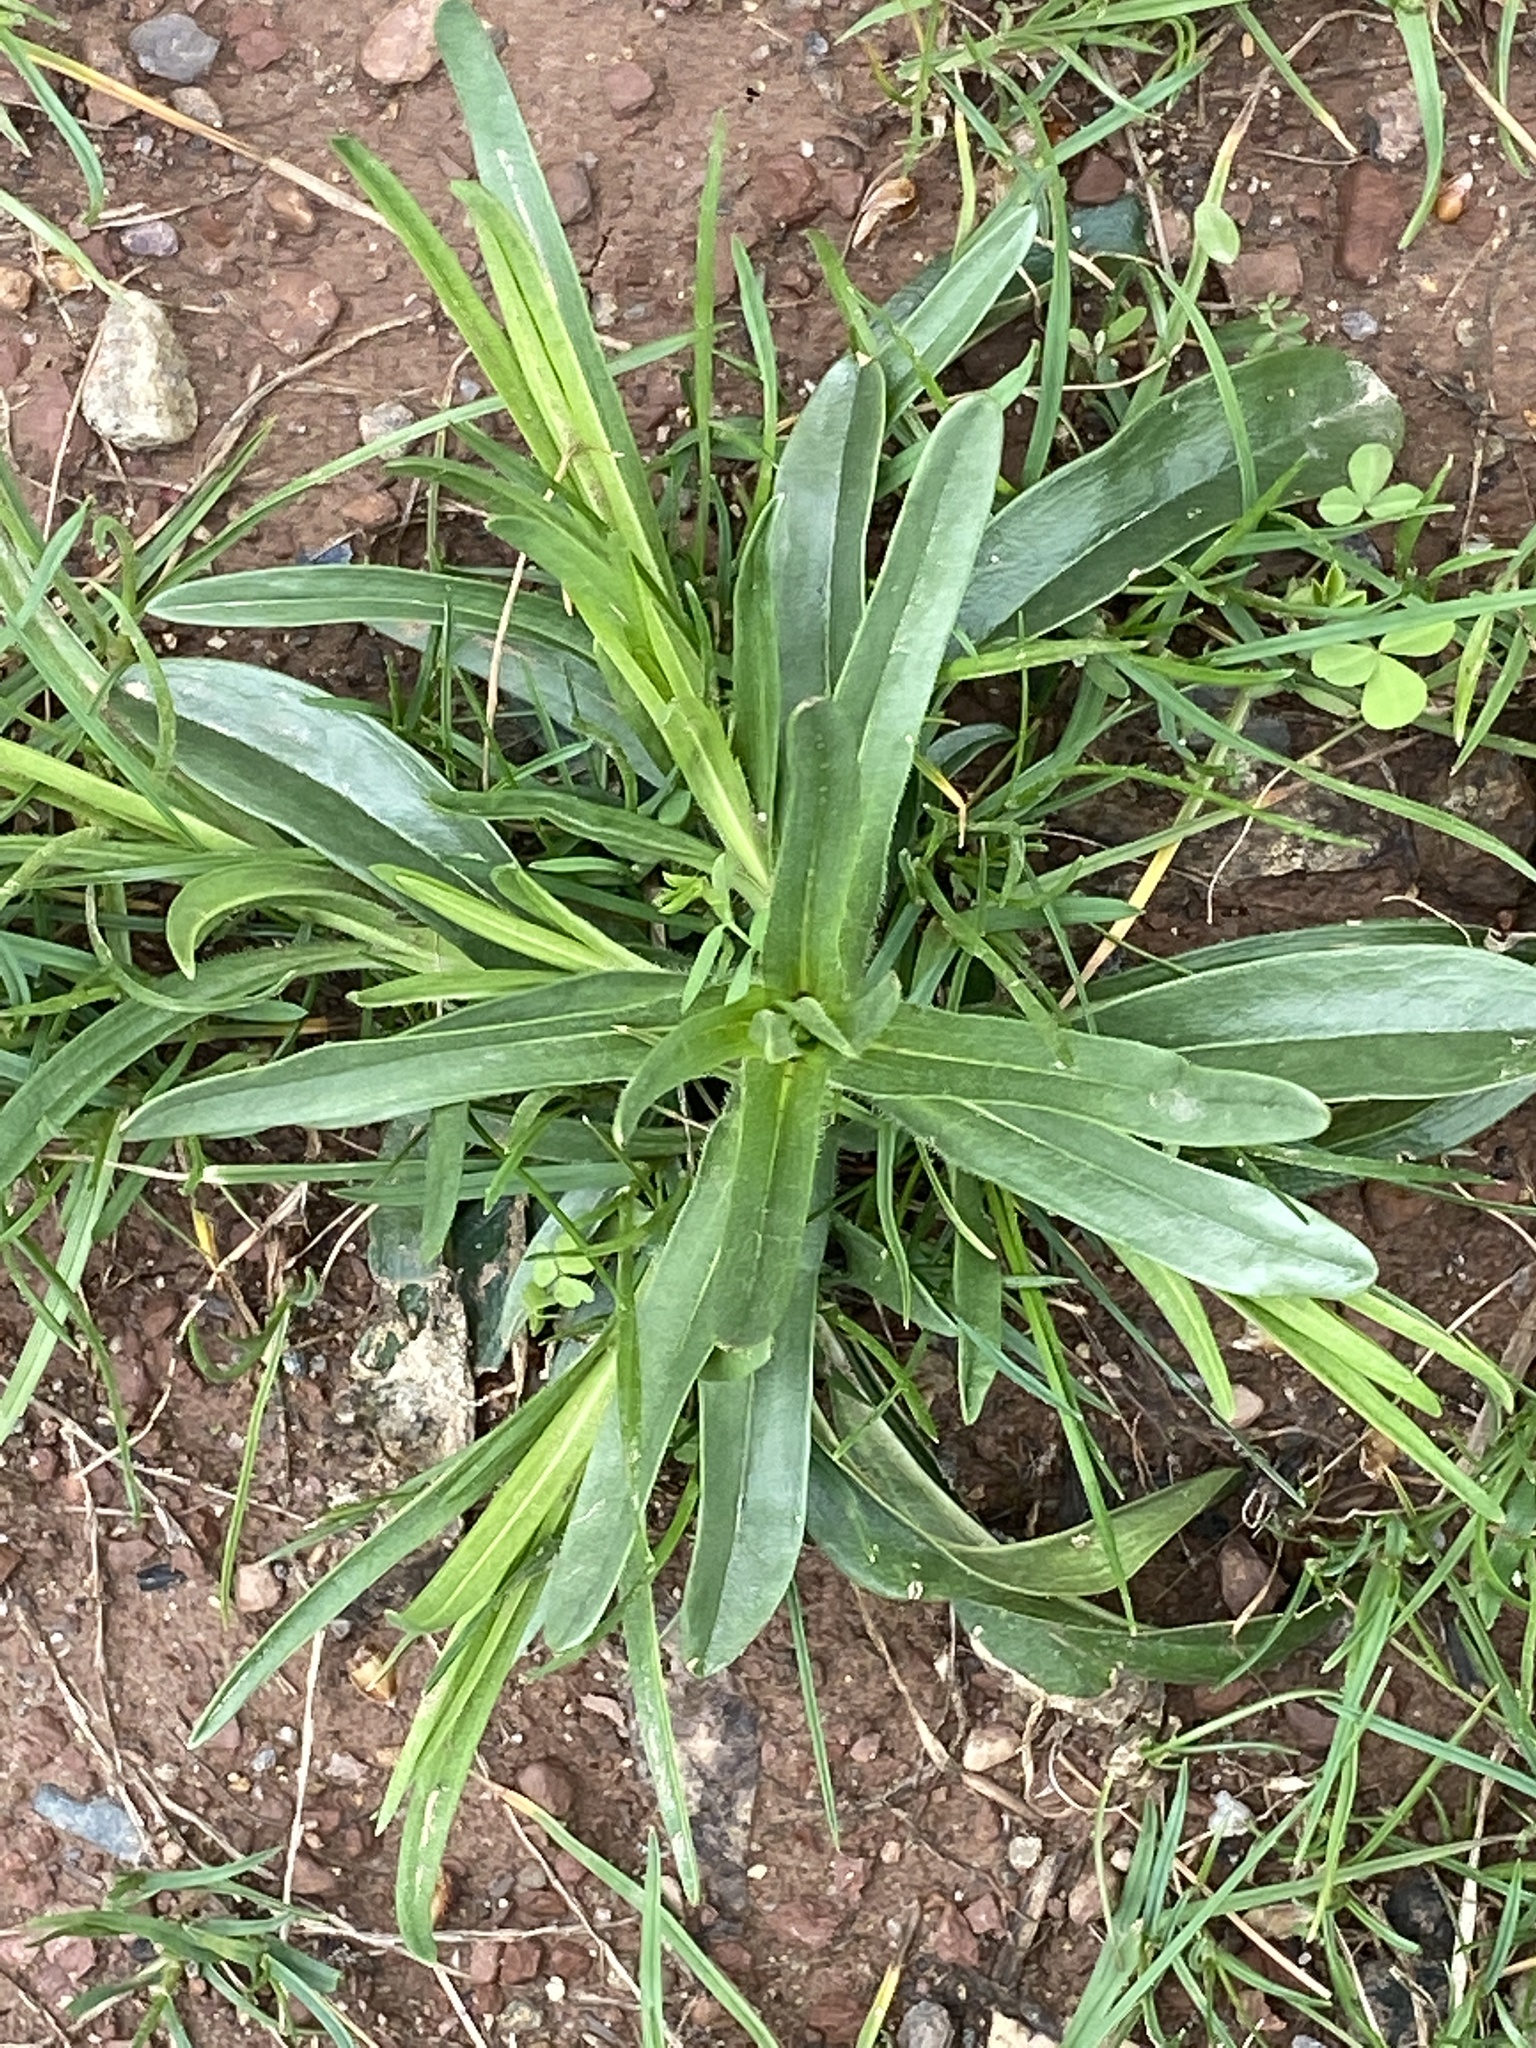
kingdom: Plantae
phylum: Tracheophyta
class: Magnoliopsida
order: Caryophyllales
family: Caryophyllaceae
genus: Dianthus
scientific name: Dianthus armeria
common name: Deptford pink
